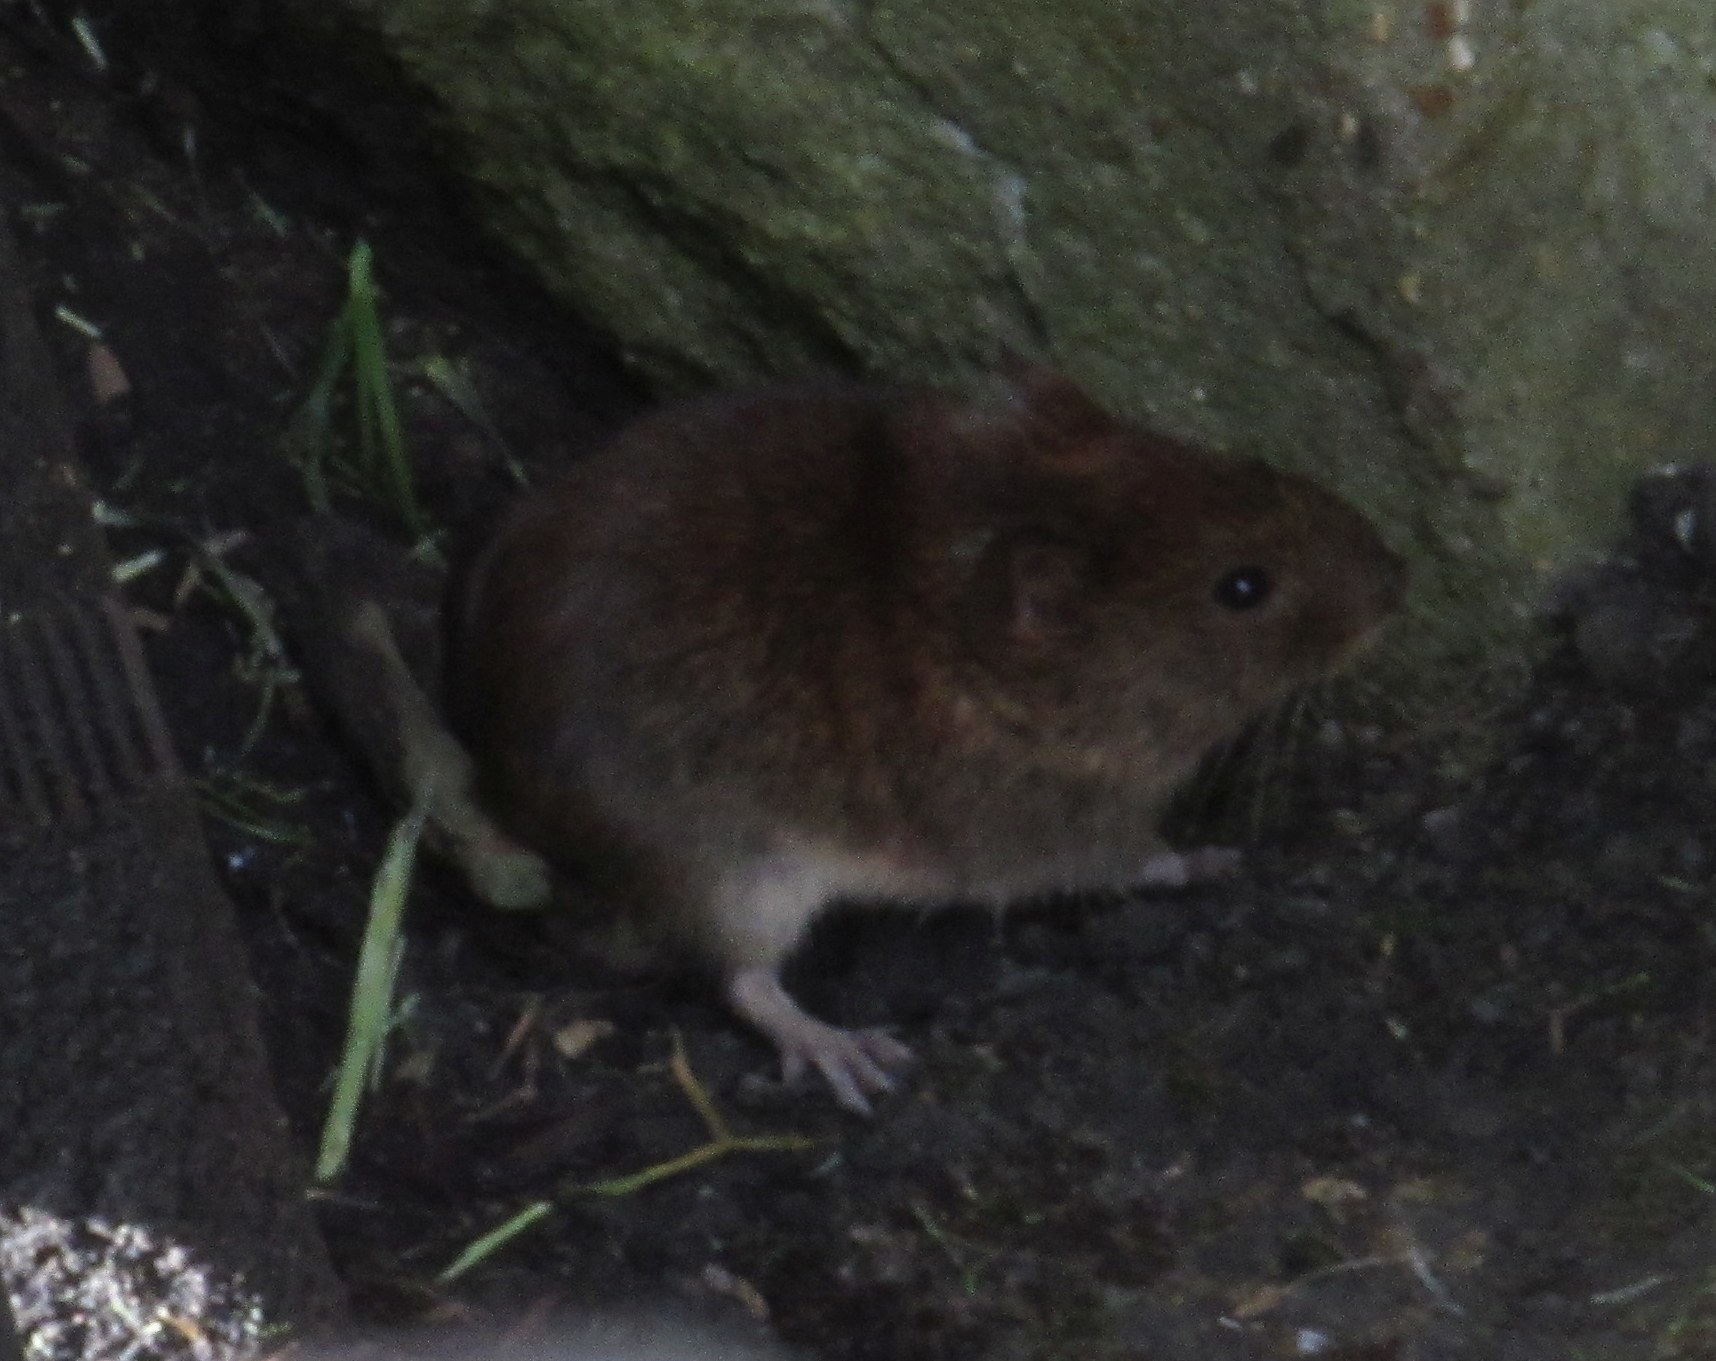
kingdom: Animalia
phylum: Chordata
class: Mammalia
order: Rodentia
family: Cricetidae
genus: Myodes
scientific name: Myodes glareolus
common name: Bank vole
